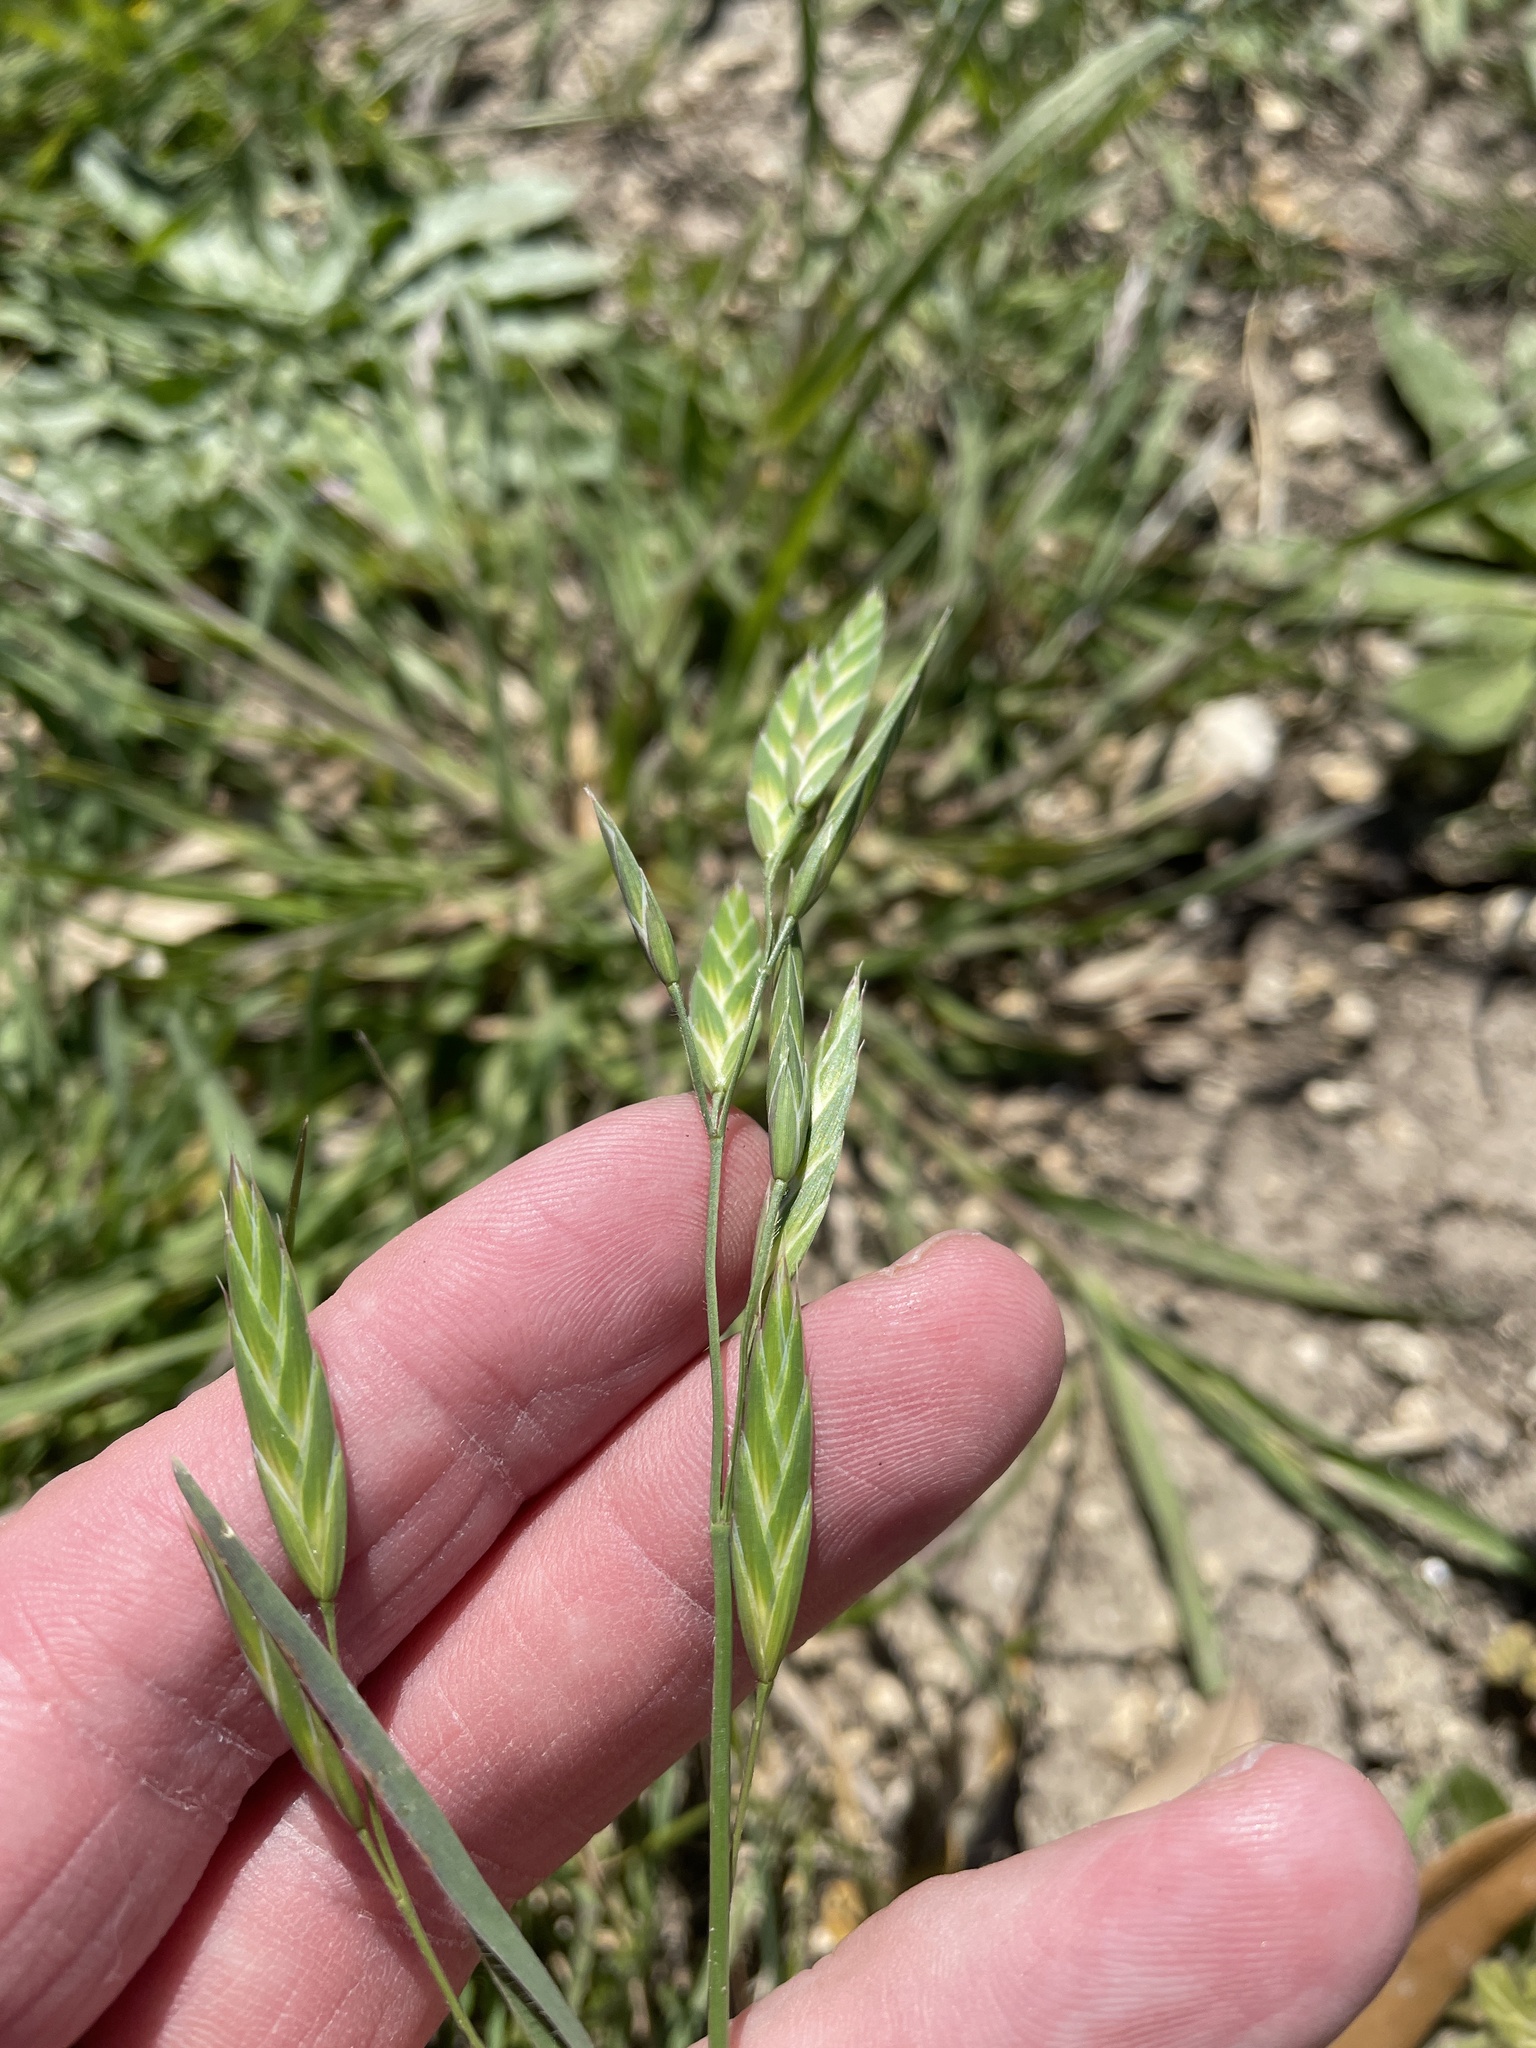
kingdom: Plantae
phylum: Tracheophyta
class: Liliopsida
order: Poales
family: Poaceae
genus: Bromus
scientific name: Bromus catharticus
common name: Rescuegrass
